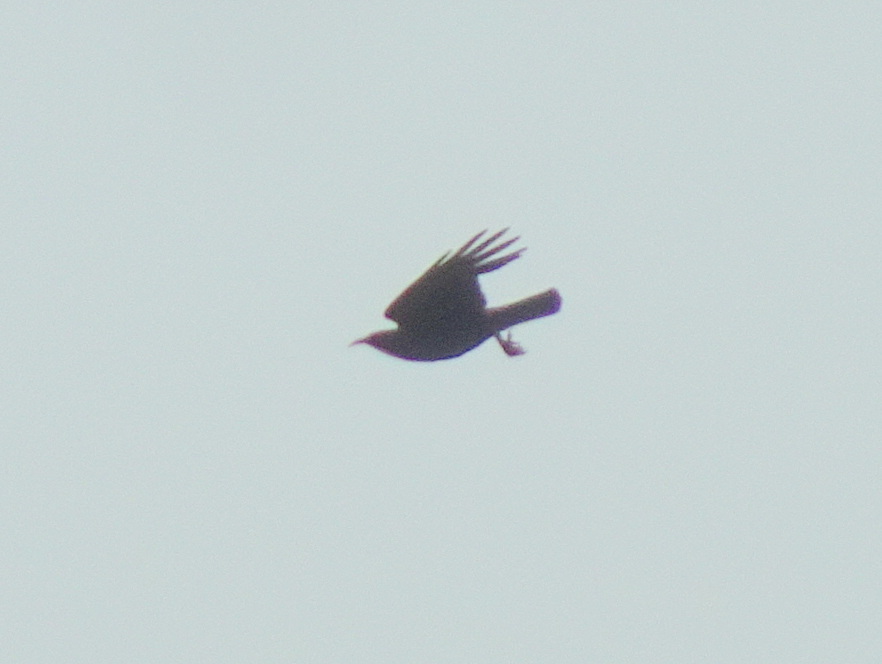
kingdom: Animalia
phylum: Chordata
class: Aves
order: Passeriformes
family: Corvidae
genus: Pyrrhocorax
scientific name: Pyrrhocorax pyrrhocorax
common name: Red-billed chough
